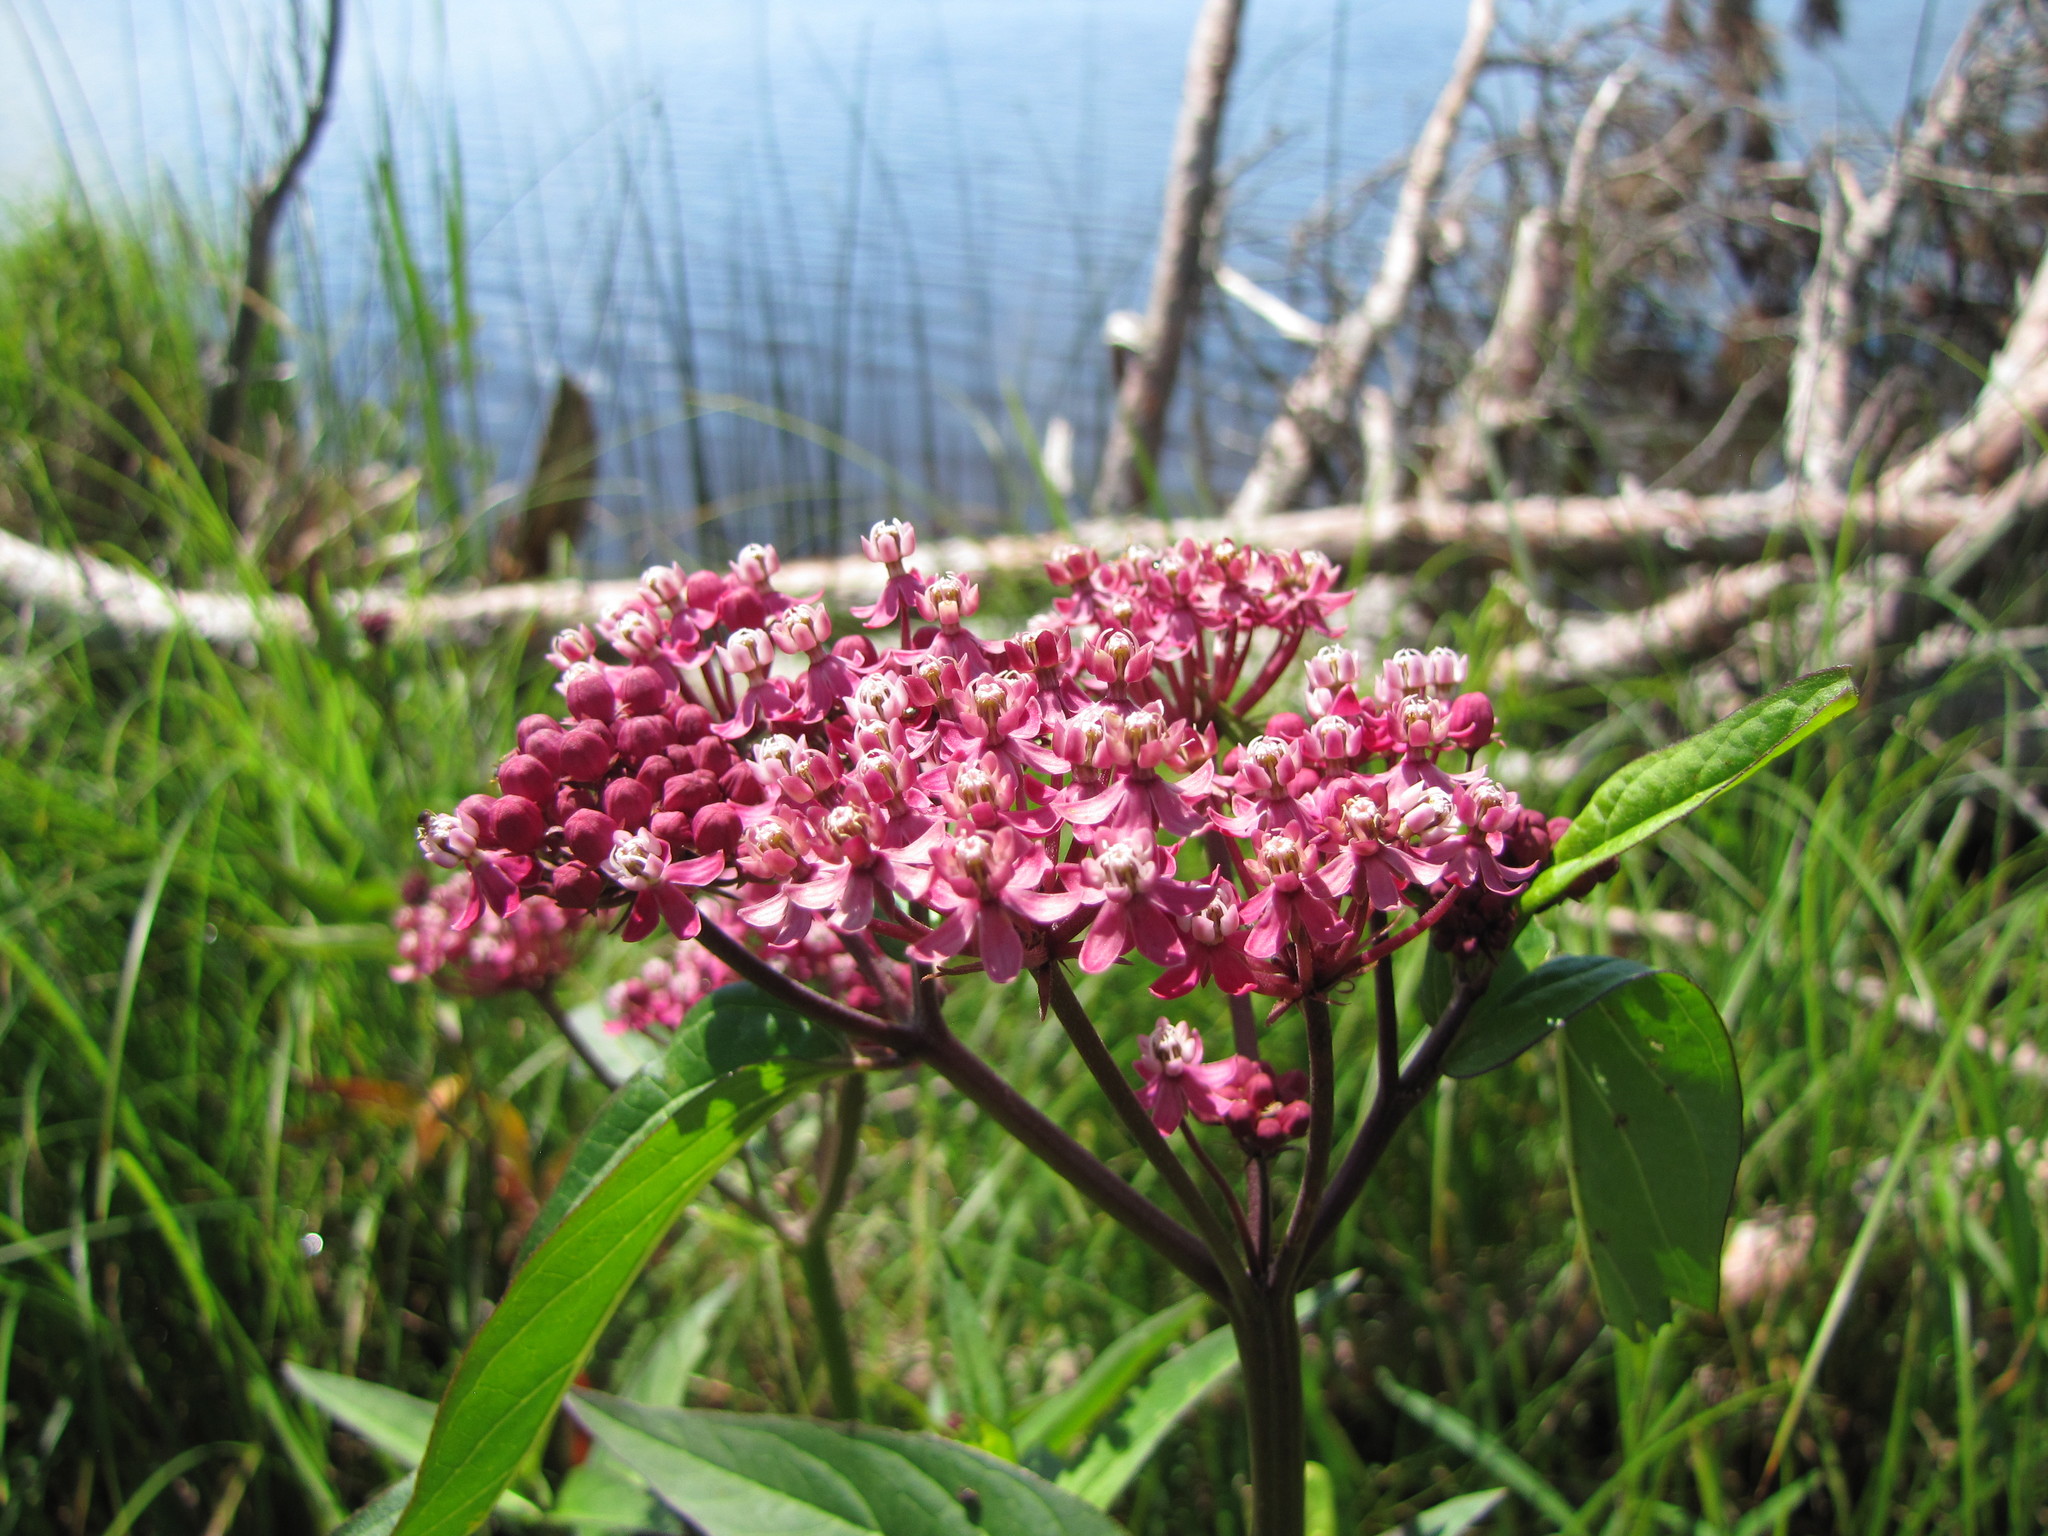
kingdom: Plantae
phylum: Tracheophyta
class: Magnoliopsida
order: Gentianales
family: Apocynaceae
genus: Asclepias
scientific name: Asclepias incarnata
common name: Swamp milkweed
